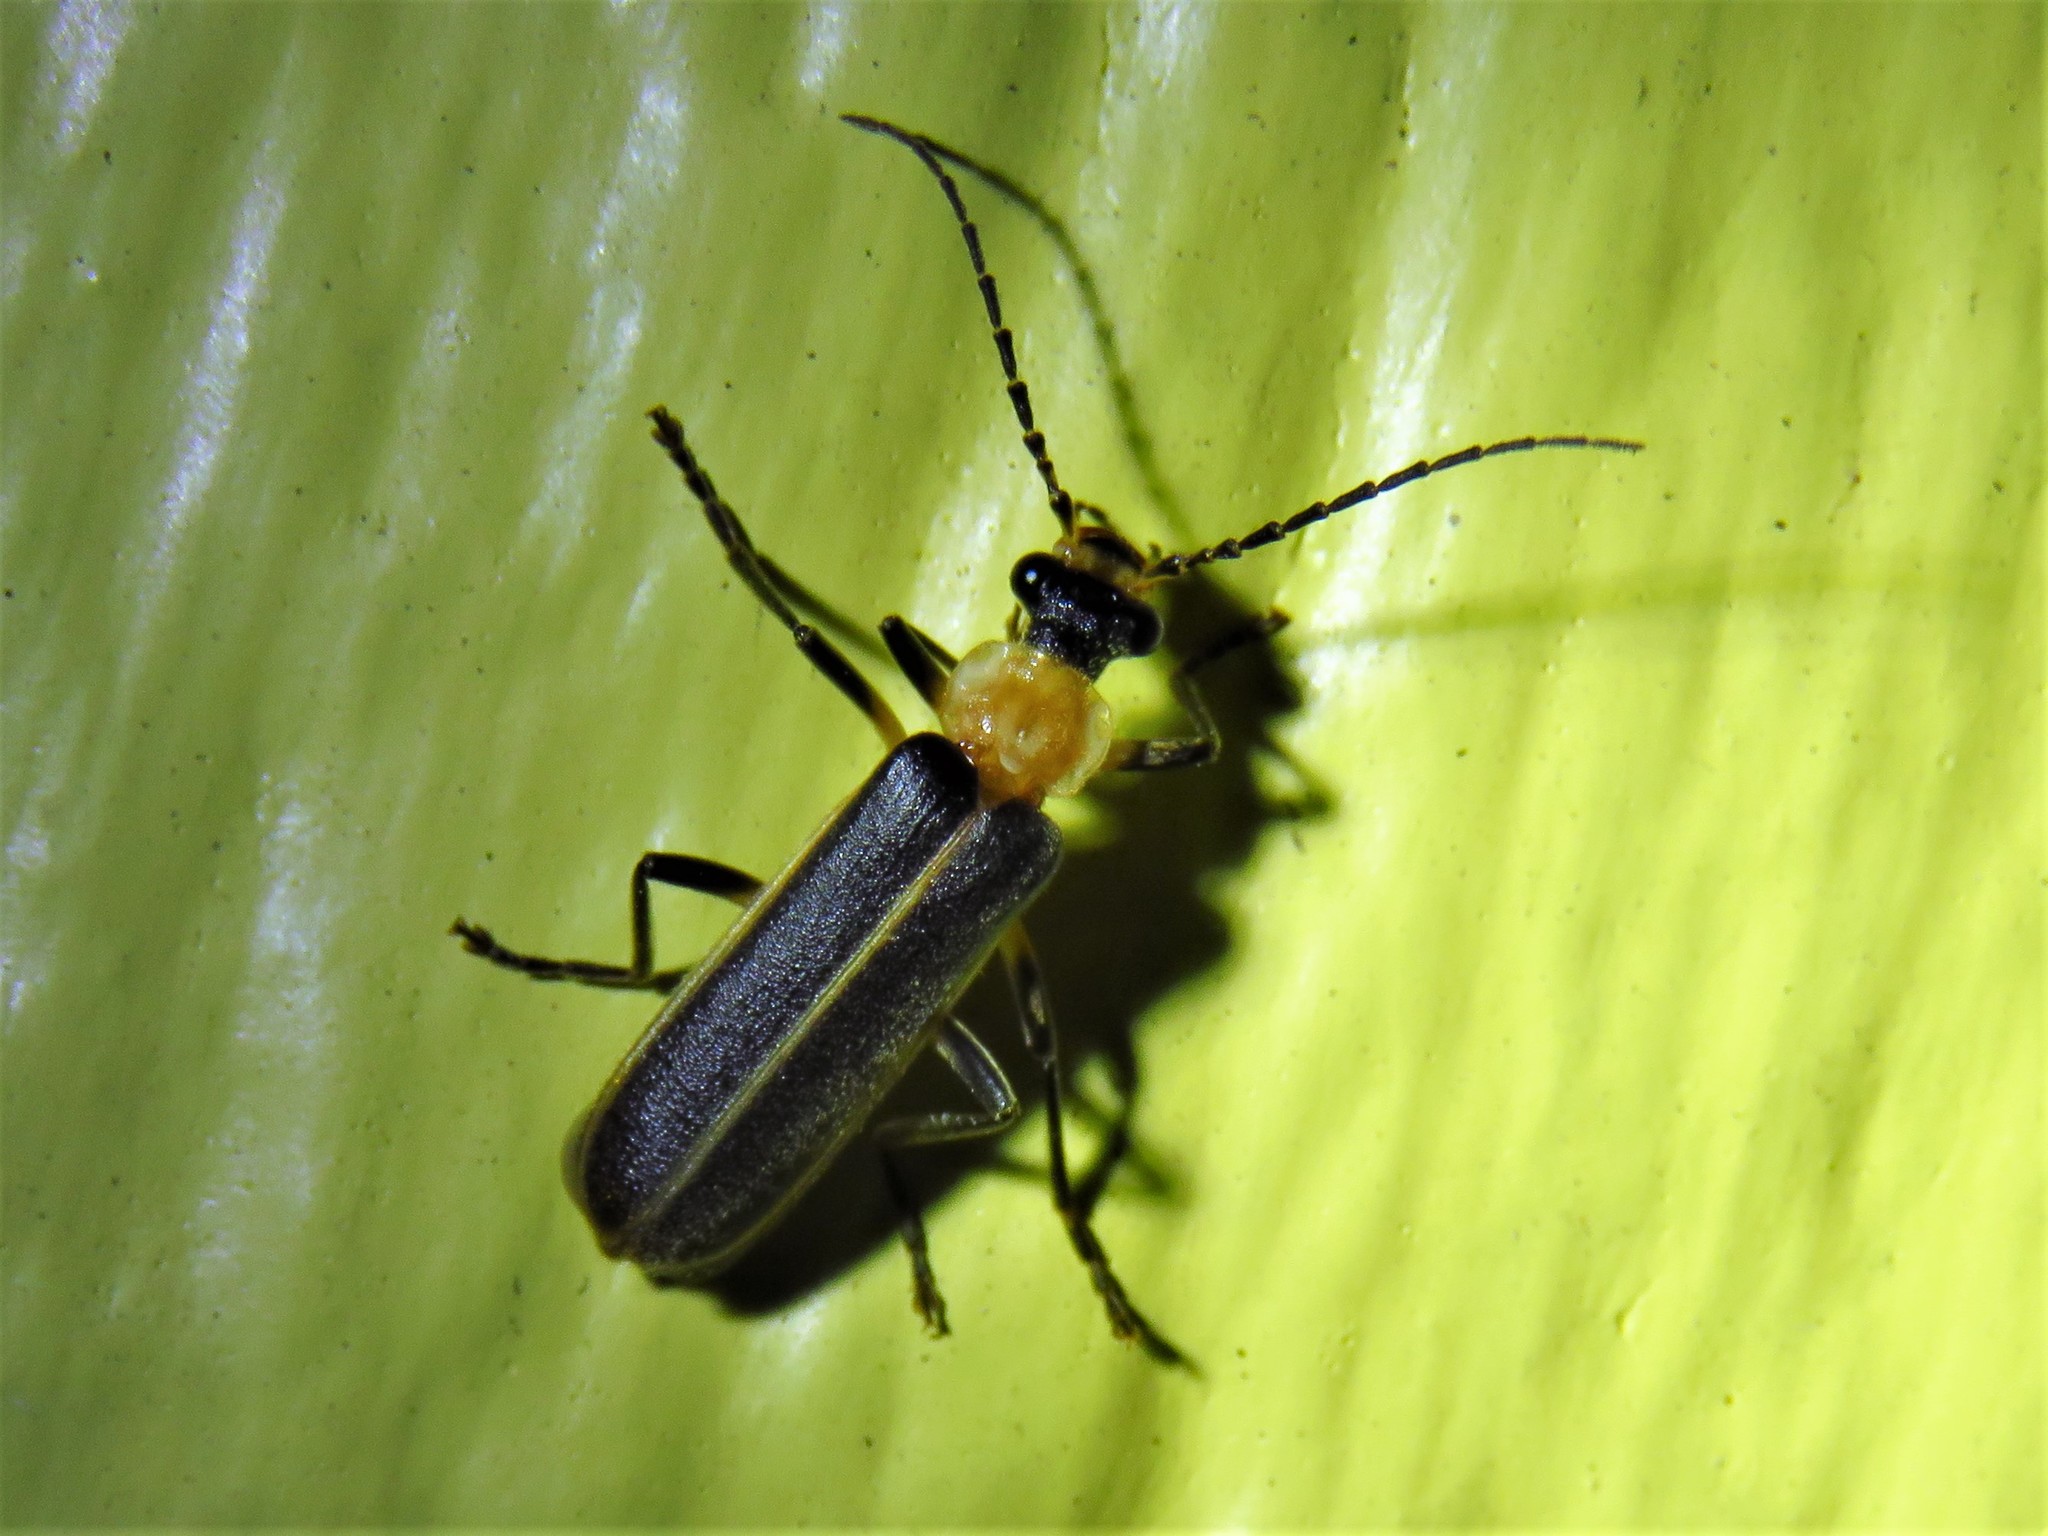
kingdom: Animalia
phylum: Arthropoda
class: Insecta
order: Coleoptera
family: Cantharidae
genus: Podabrus
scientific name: Podabrus flavicollis
